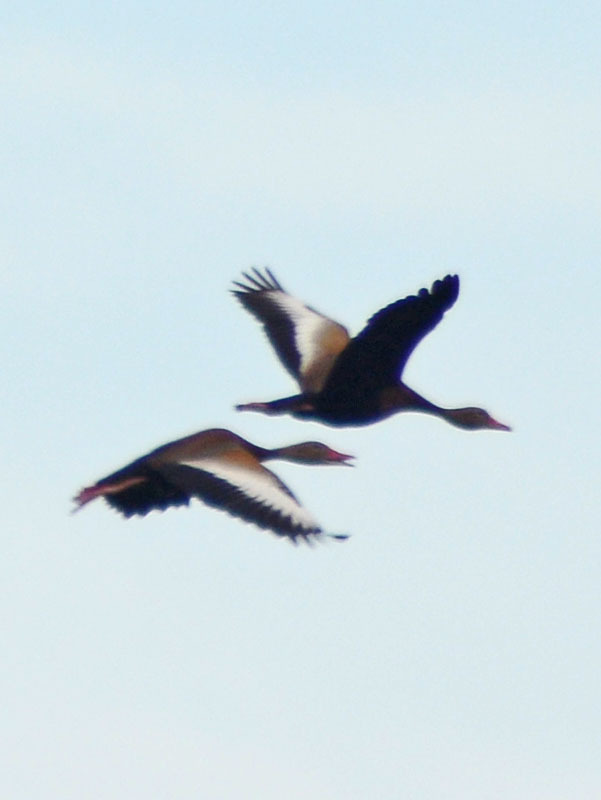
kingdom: Animalia
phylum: Chordata
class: Aves
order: Anseriformes
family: Anatidae
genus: Dendrocygna
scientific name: Dendrocygna autumnalis
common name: Black-bellied whistling duck
